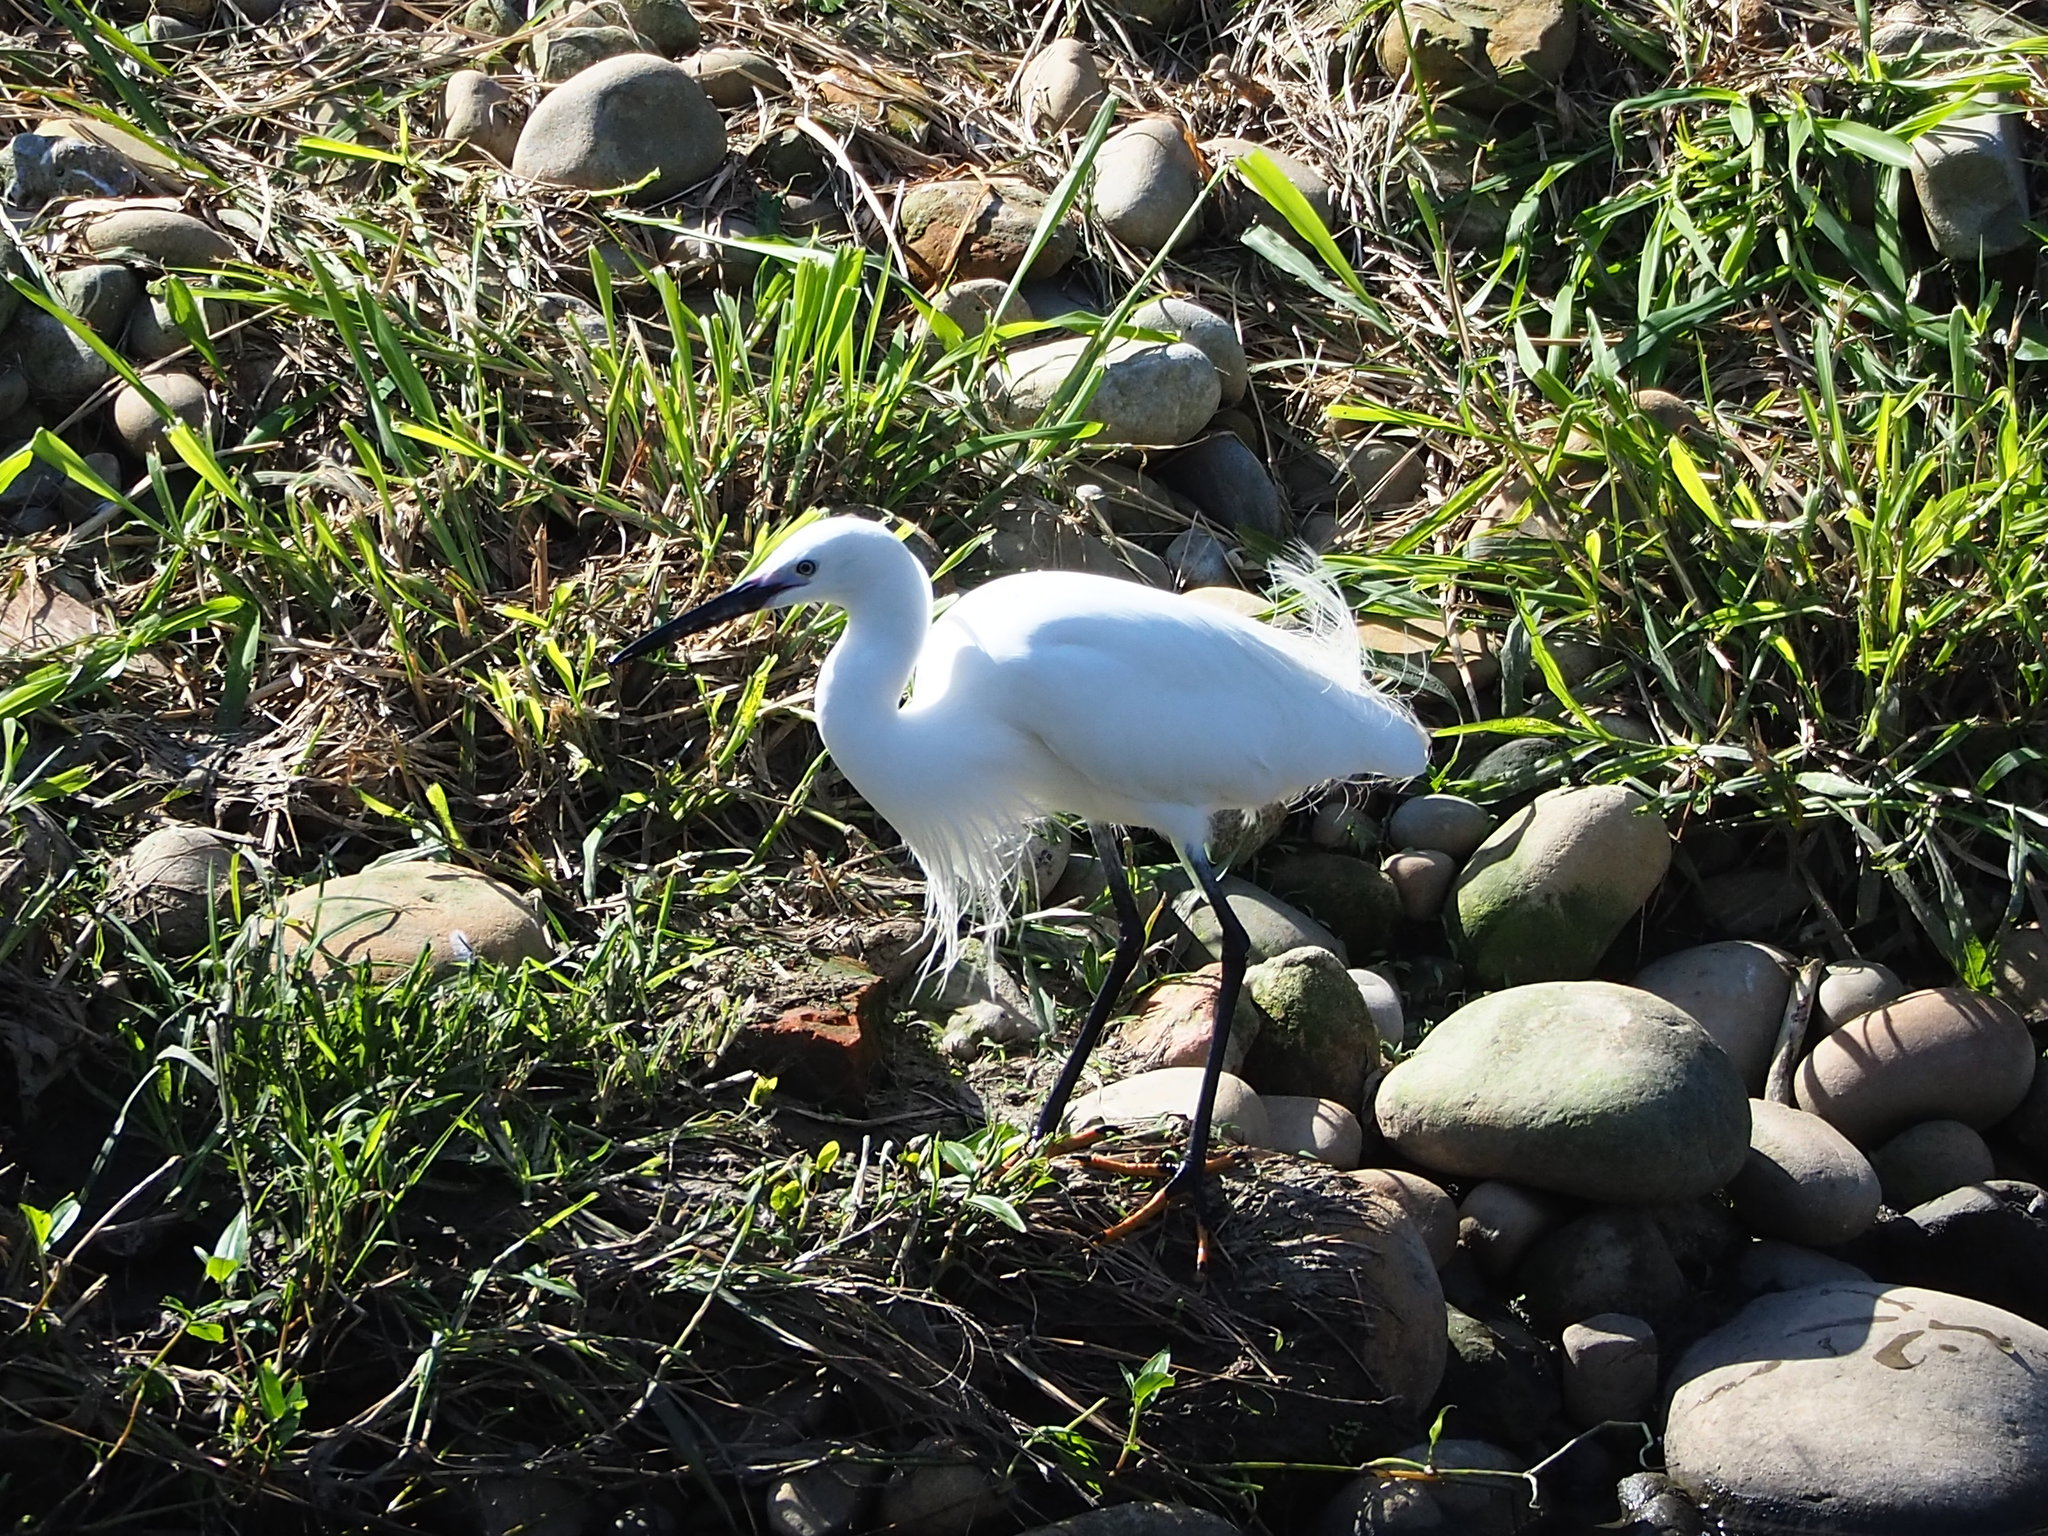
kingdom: Animalia
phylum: Chordata
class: Aves
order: Pelecaniformes
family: Ardeidae
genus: Egretta
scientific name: Egretta garzetta
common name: Little egret
